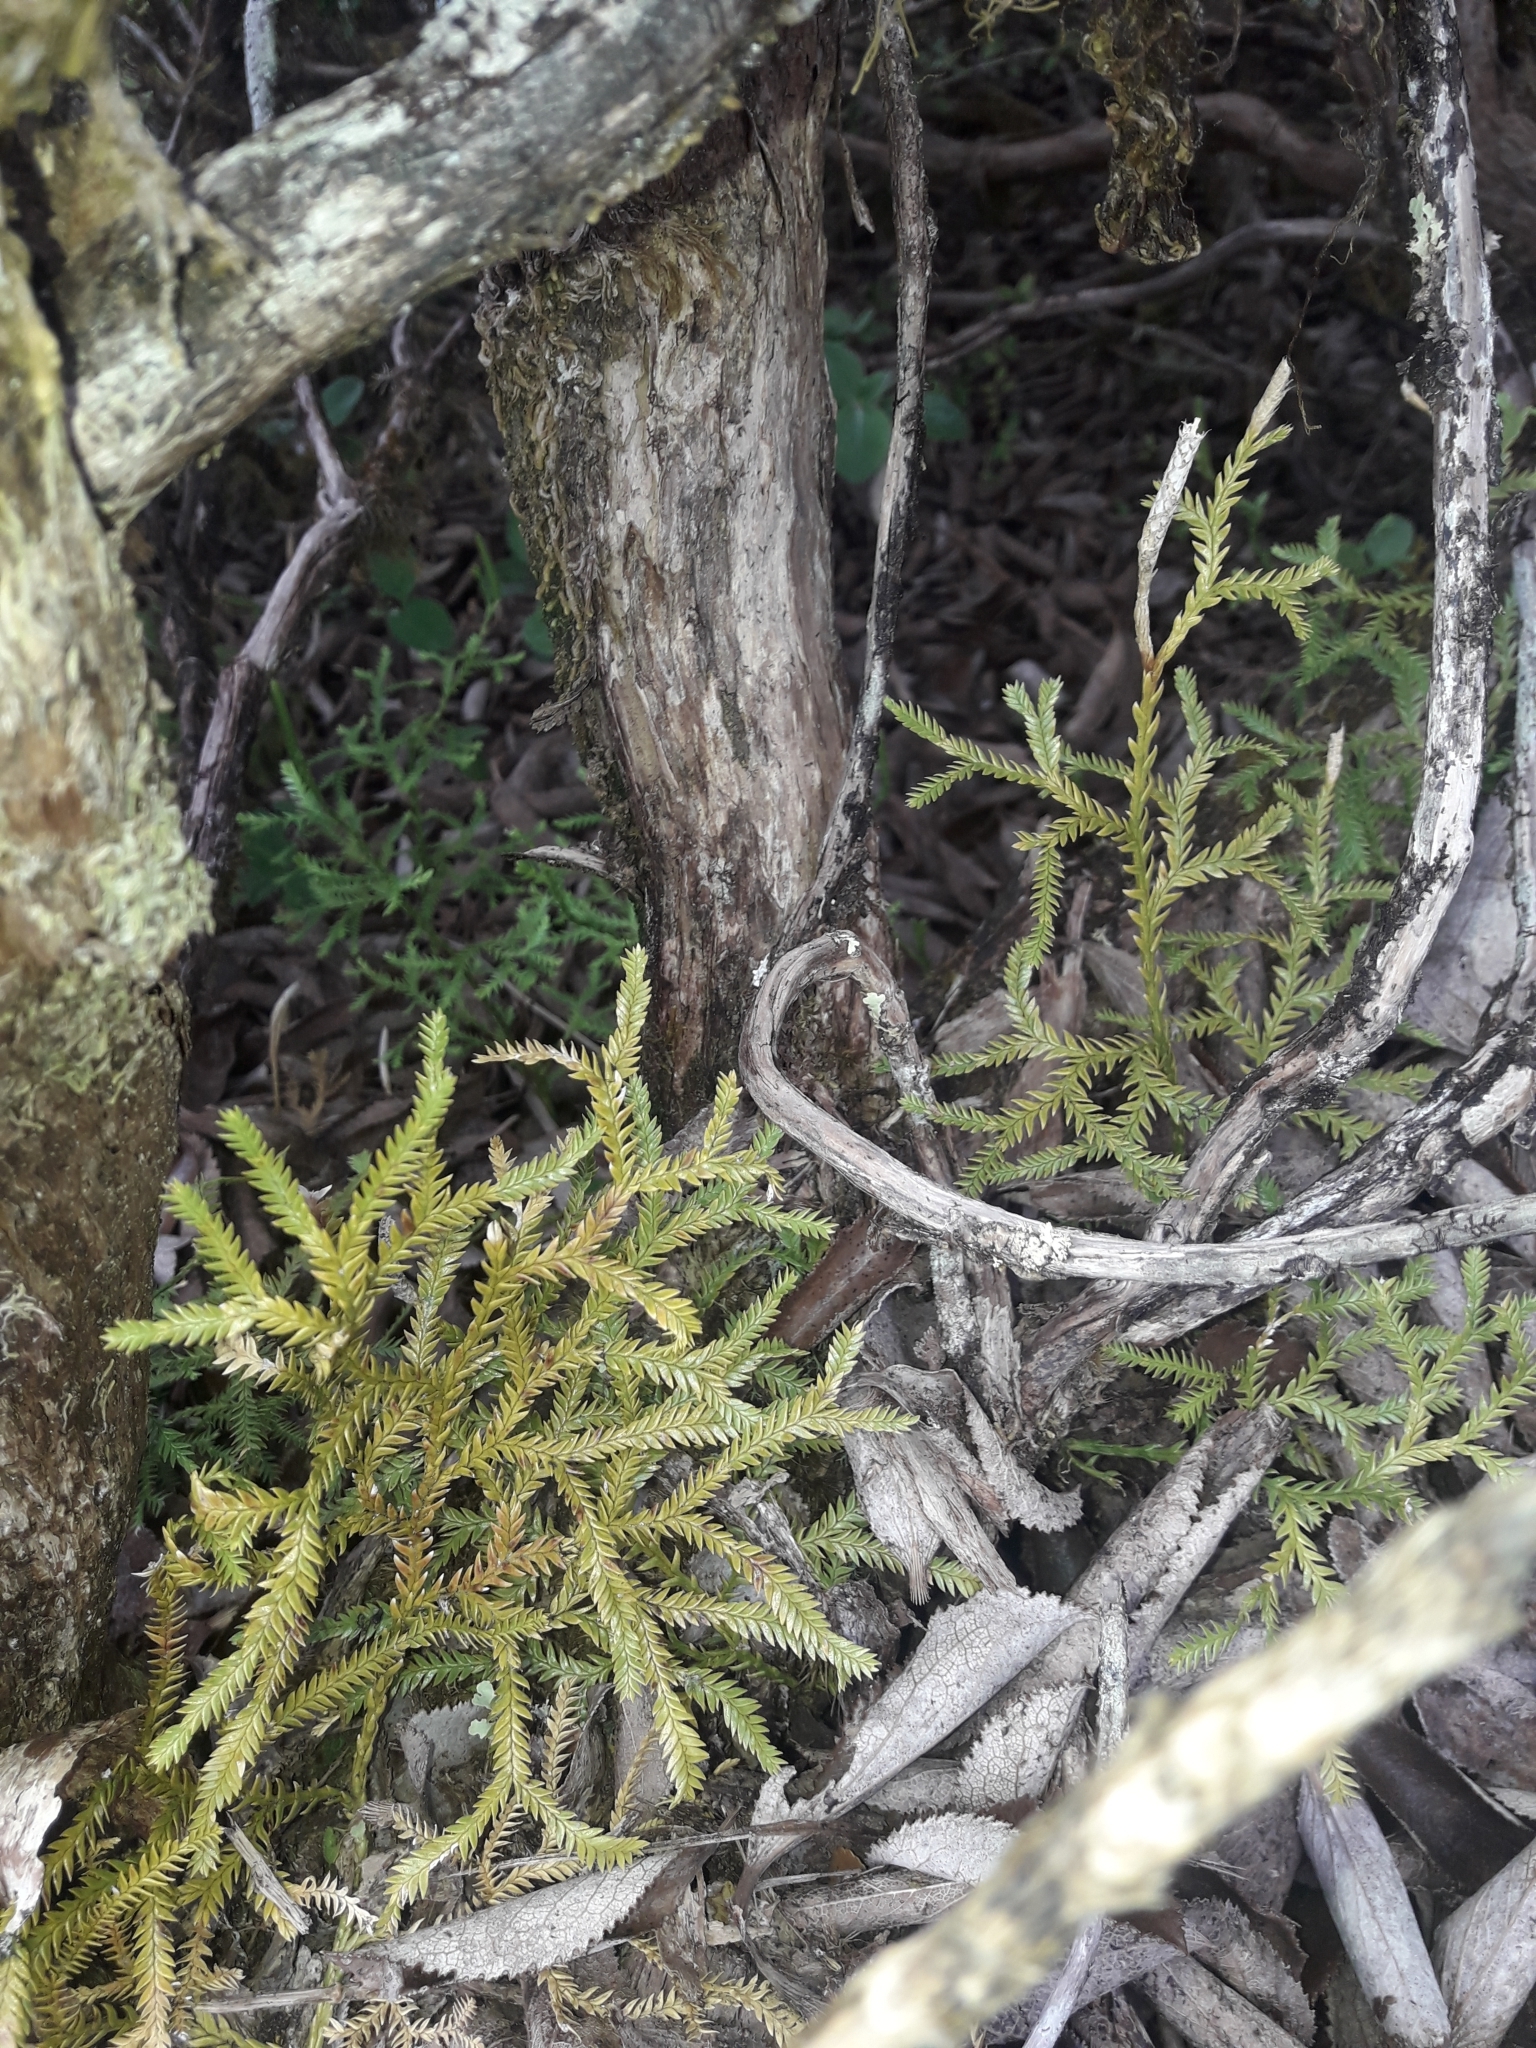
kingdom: Plantae
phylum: Tracheophyta
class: Lycopodiopsida
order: Lycopodiales
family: Lycopodiaceae
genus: Diphasium
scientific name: Diphasium scariosum
